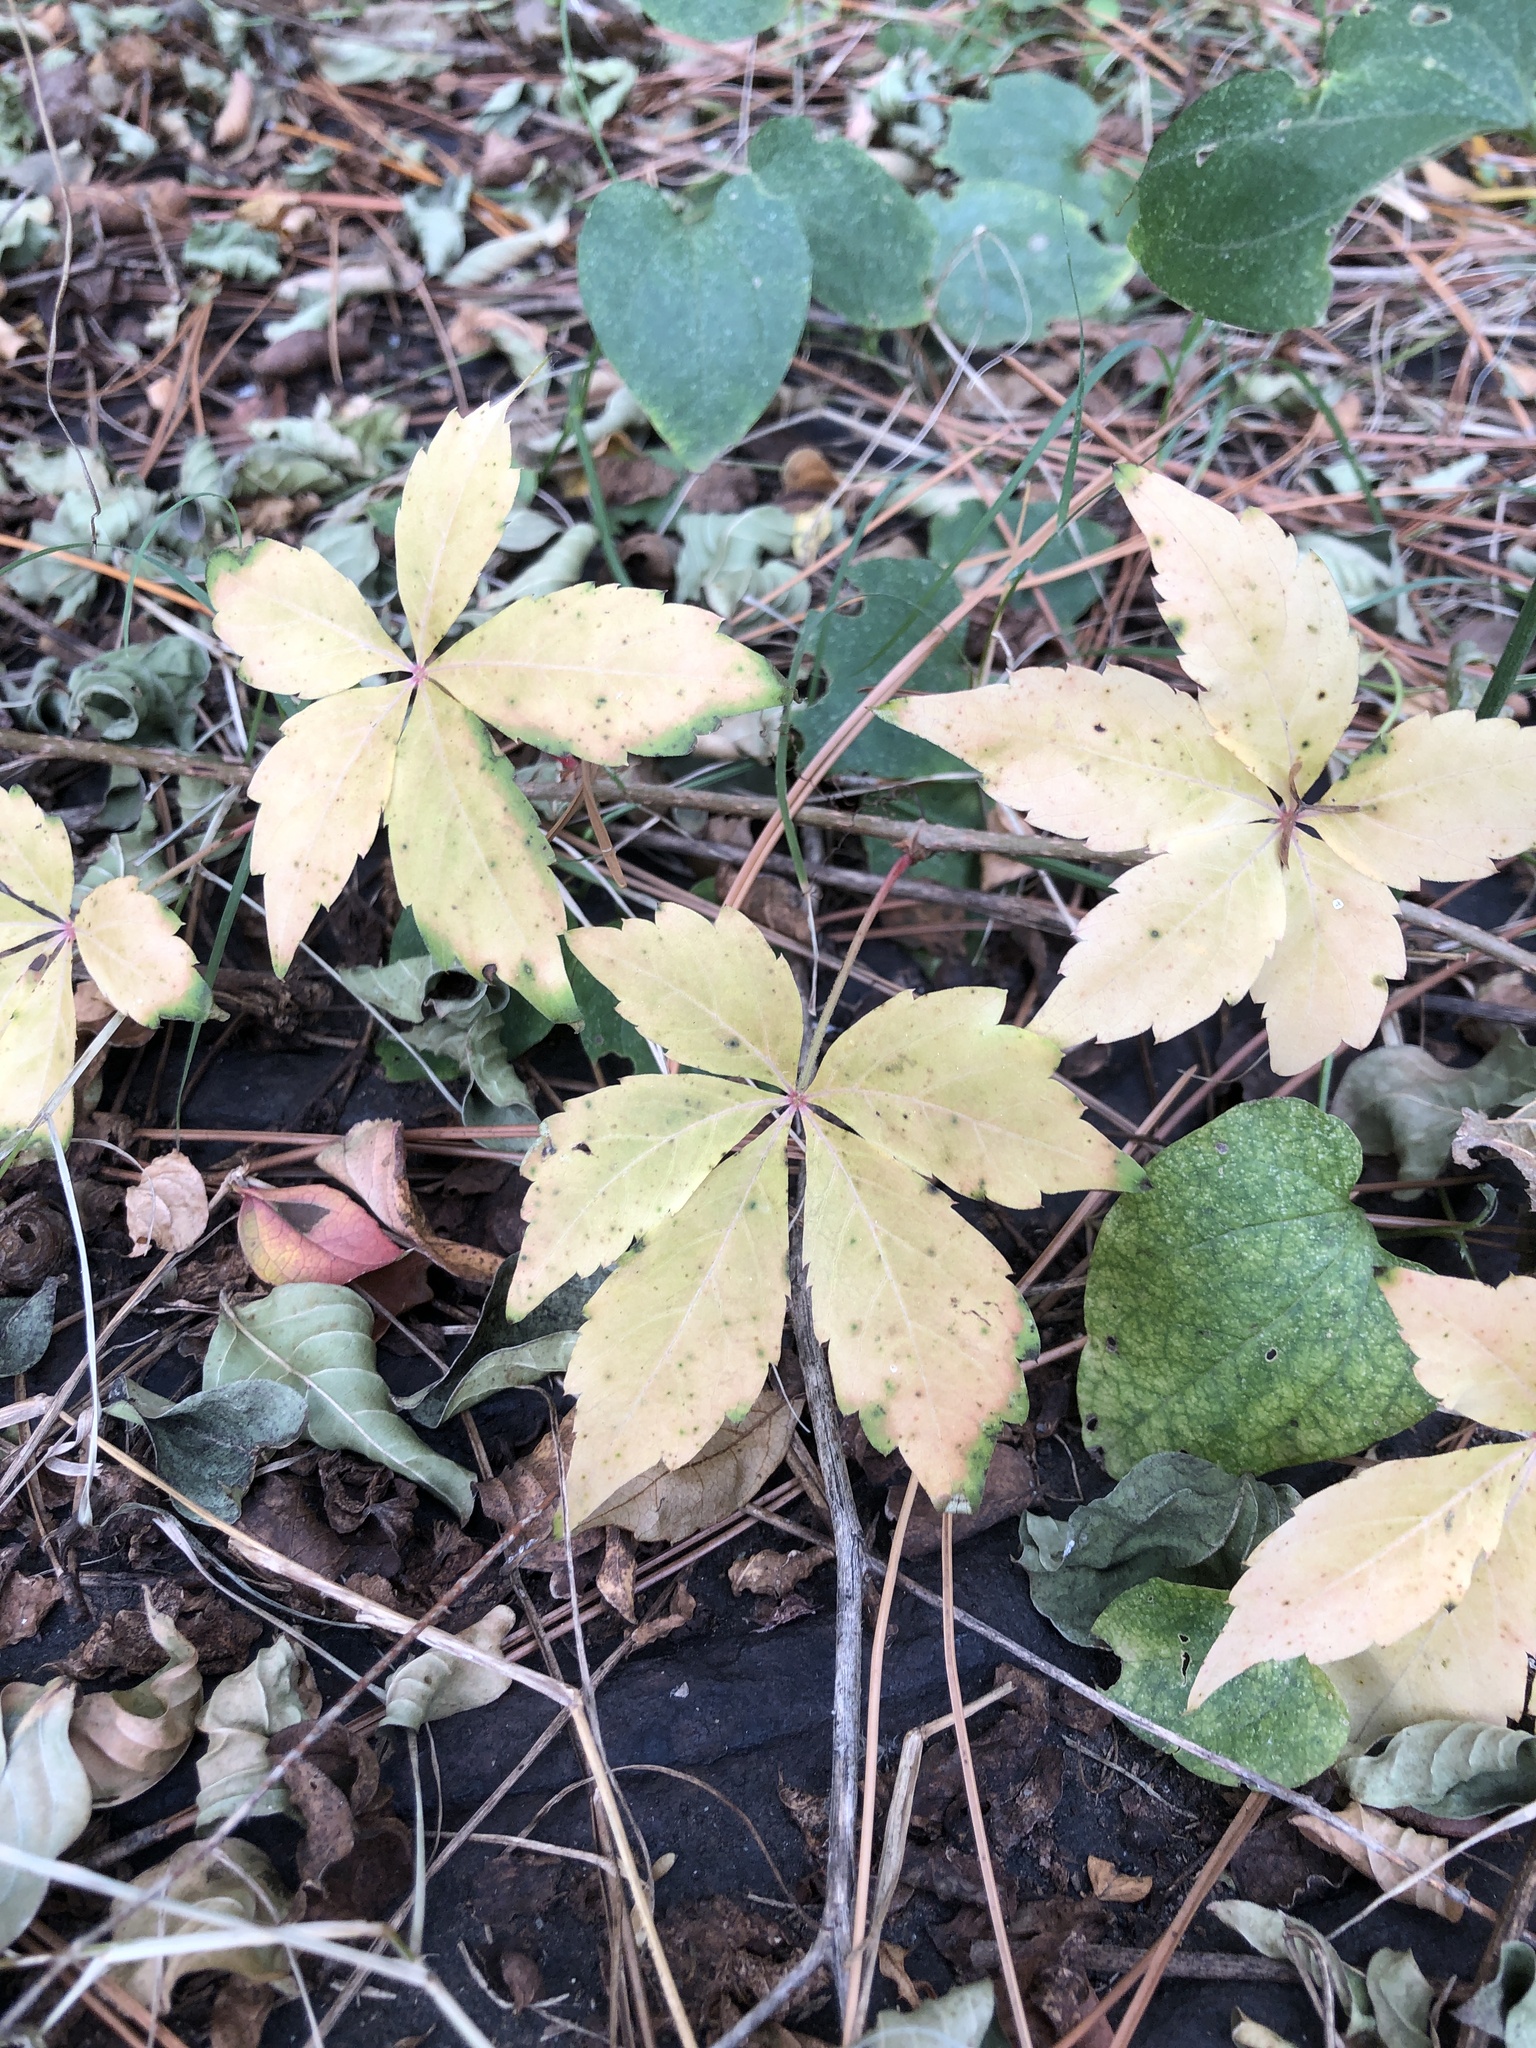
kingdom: Plantae
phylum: Tracheophyta
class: Magnoliopsida
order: Vitales
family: Vitaceae
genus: Parthenocissus
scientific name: Parthenocissus quinquefolia
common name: Virginia-creeper
